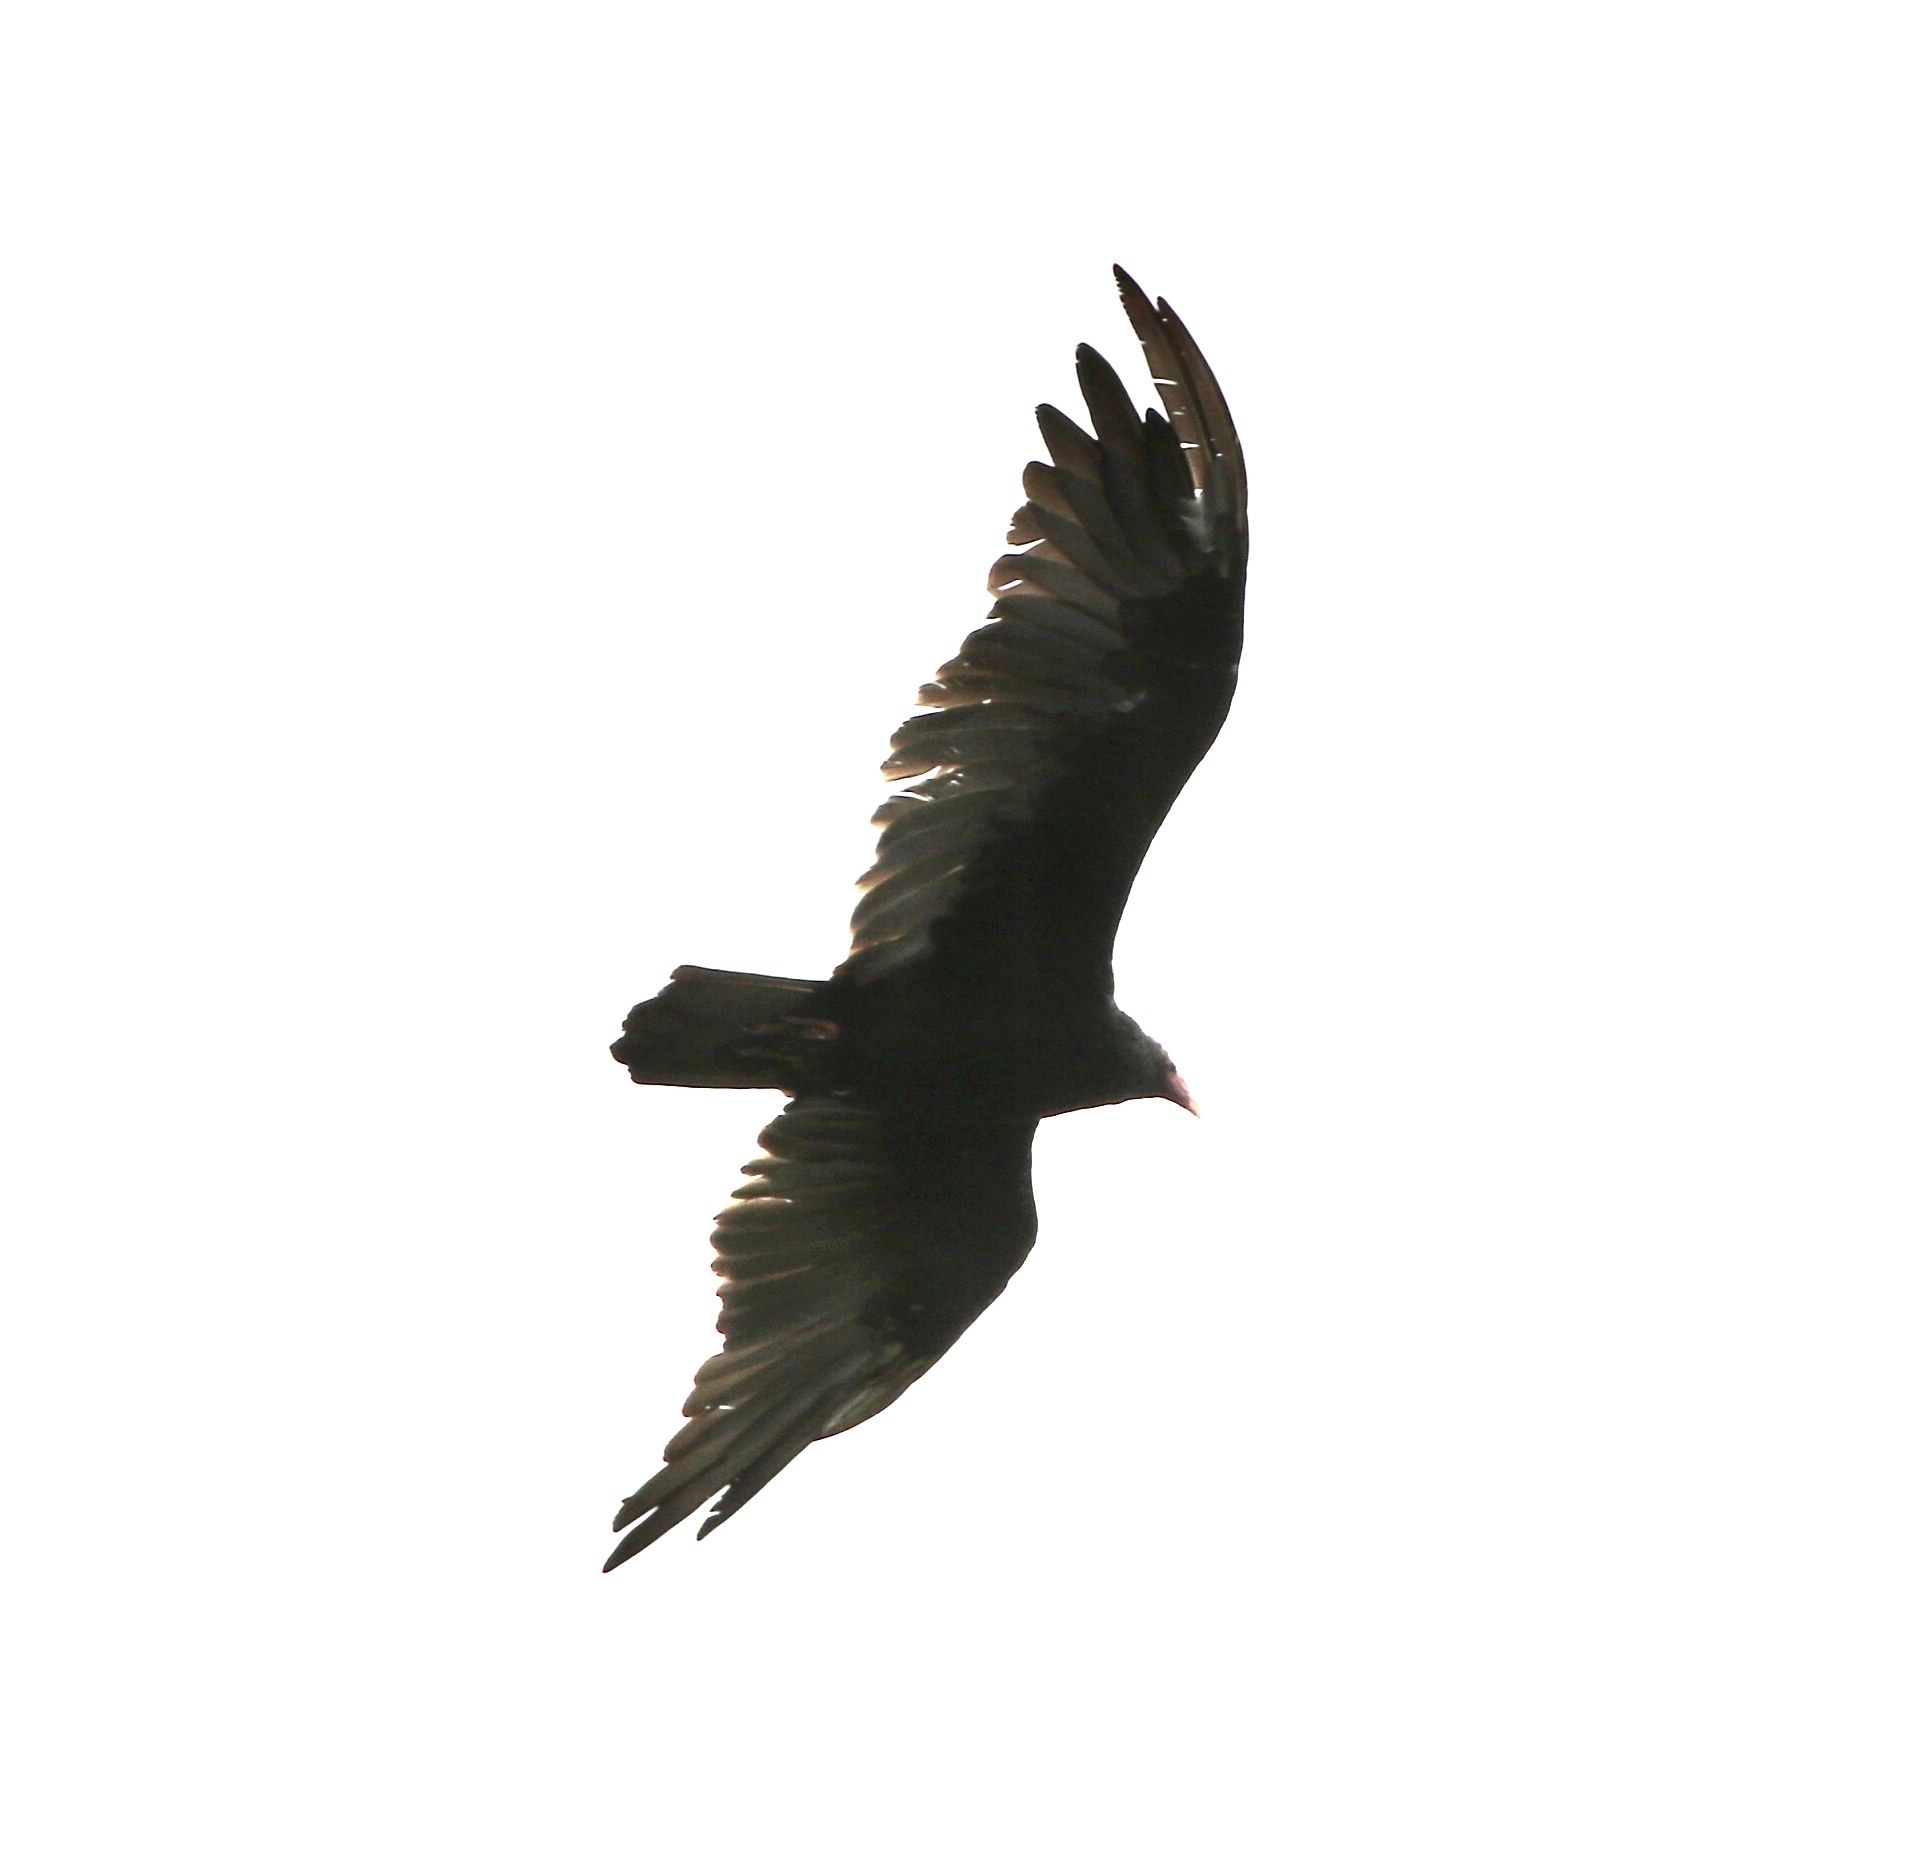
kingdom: Animalia
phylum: Chordata
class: Aves
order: Accipitriformes
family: Cathartidae
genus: Cathartes
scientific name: Cathartes aura
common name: Turkey vulture
